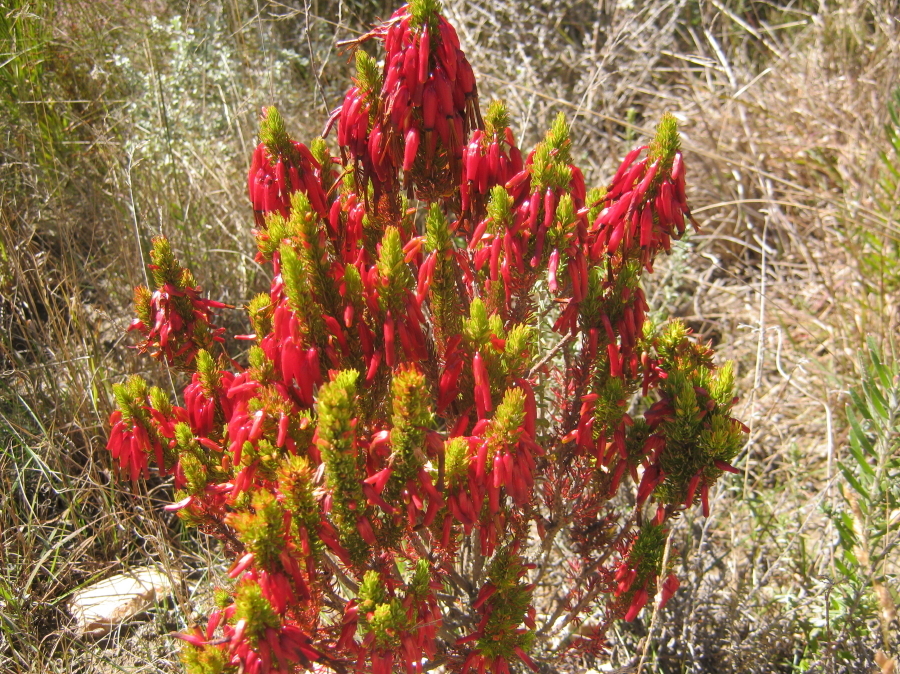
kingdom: Plantae
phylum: Tracheophyta
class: Magnoliopsida
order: Ericales
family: Ericaceae
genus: Erica
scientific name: Erica plukenetii
